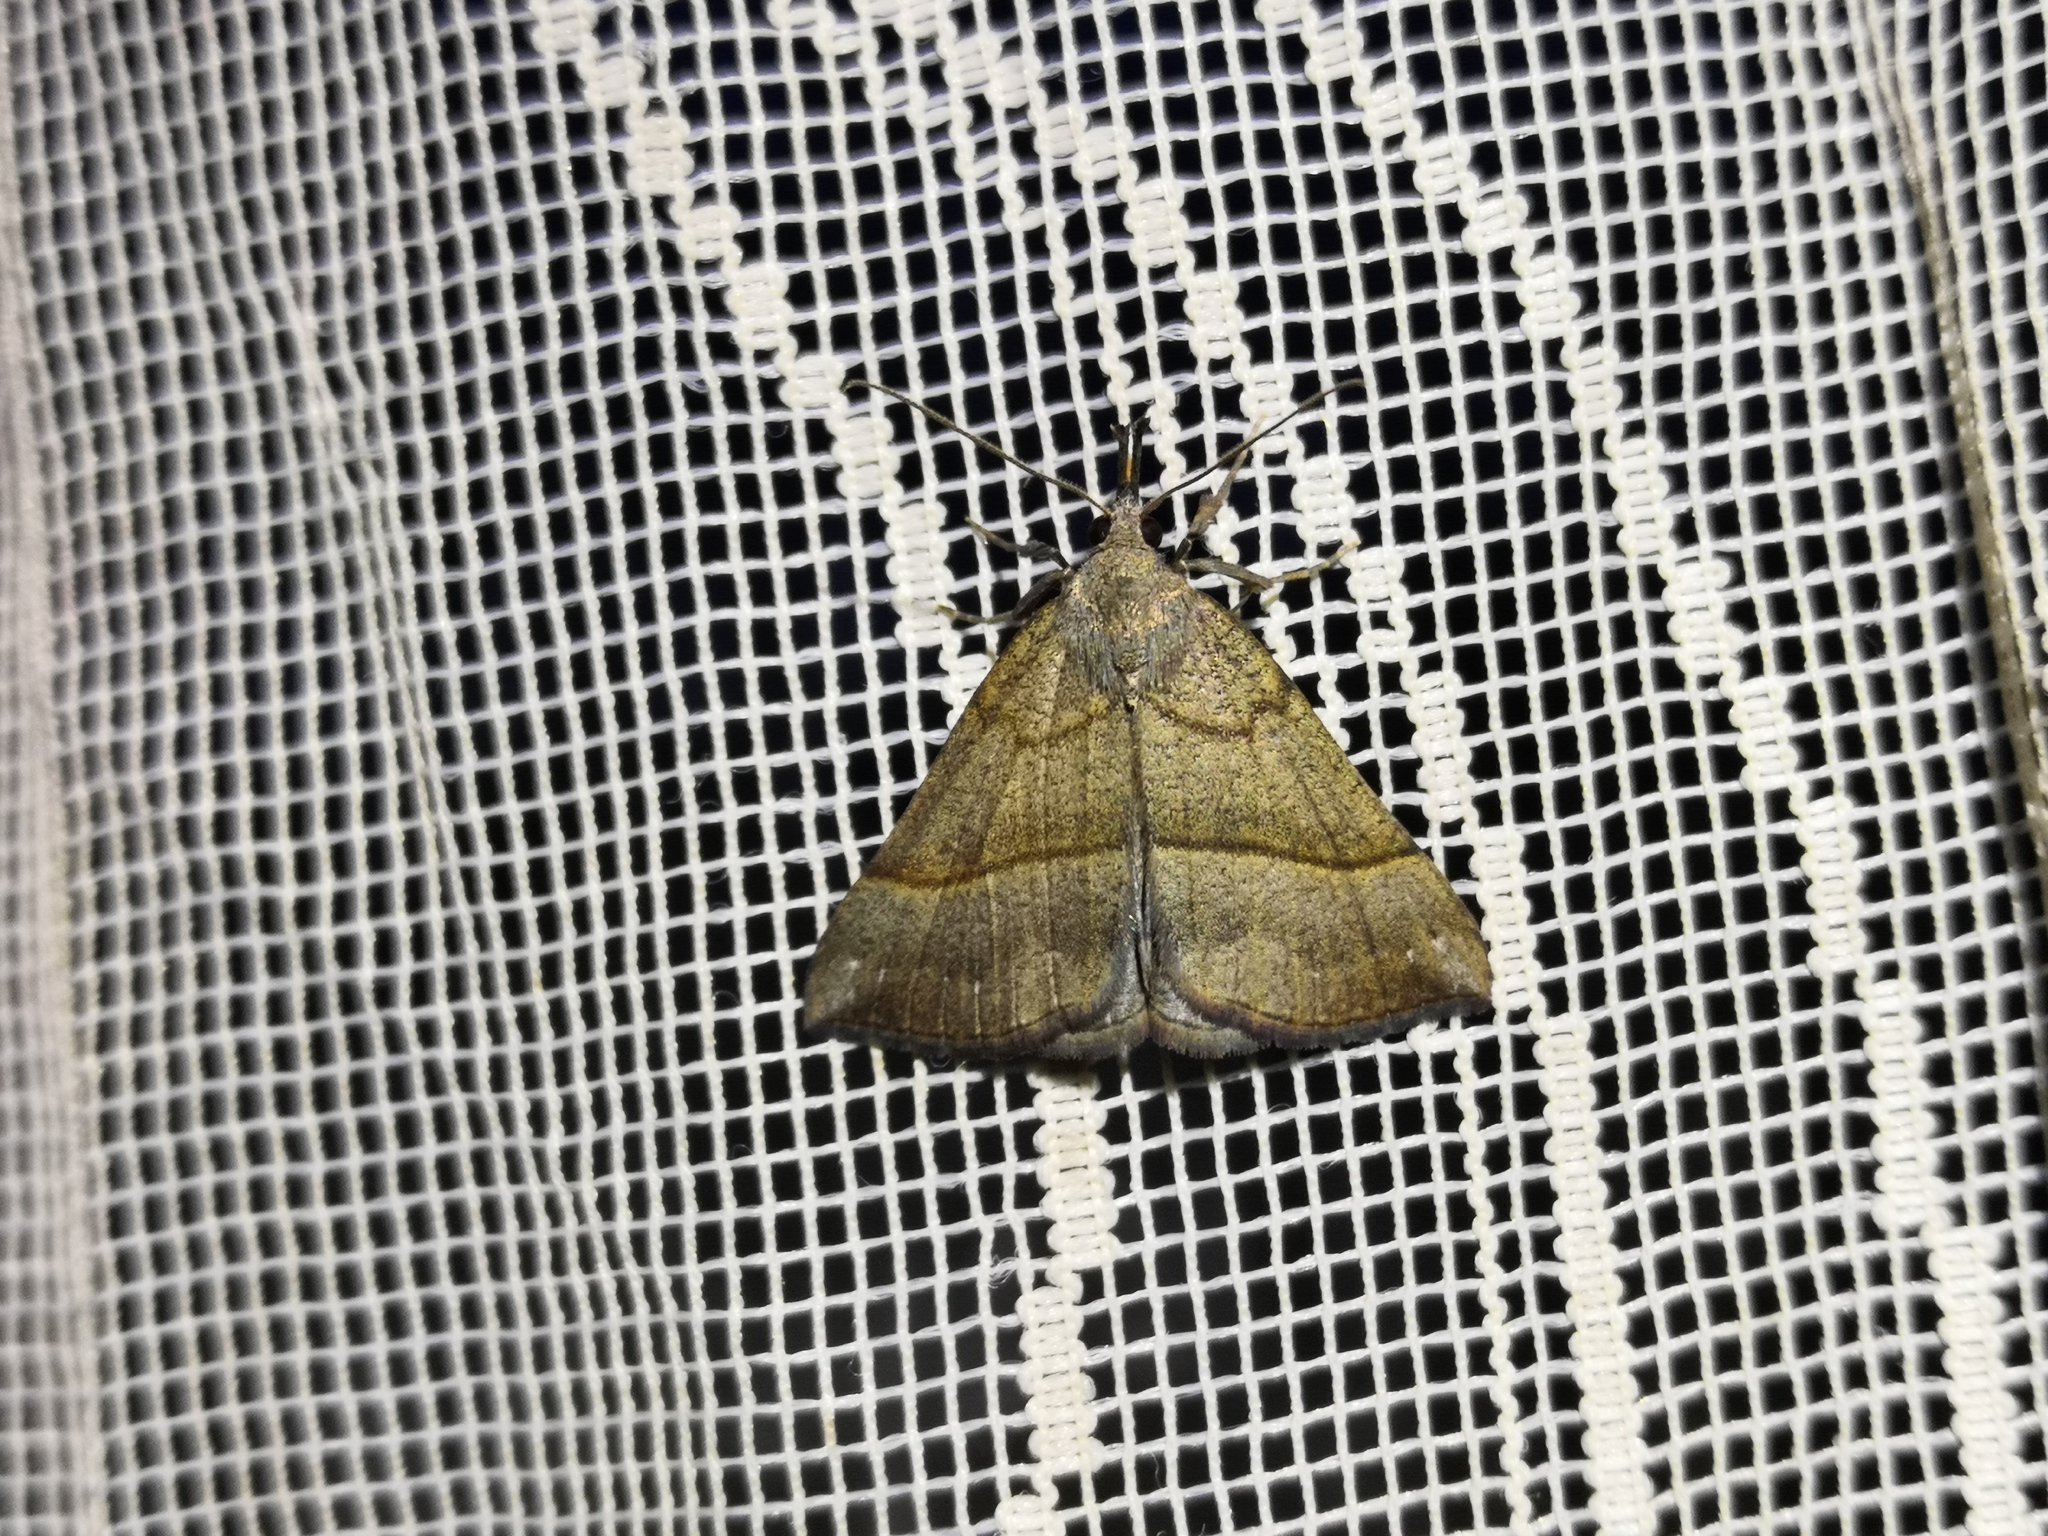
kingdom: Animalia
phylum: Arthropoda
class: Insecta
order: Lepidoptera
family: Erebidae
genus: Hypena
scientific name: Hypena proboscidalis
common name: Snout
